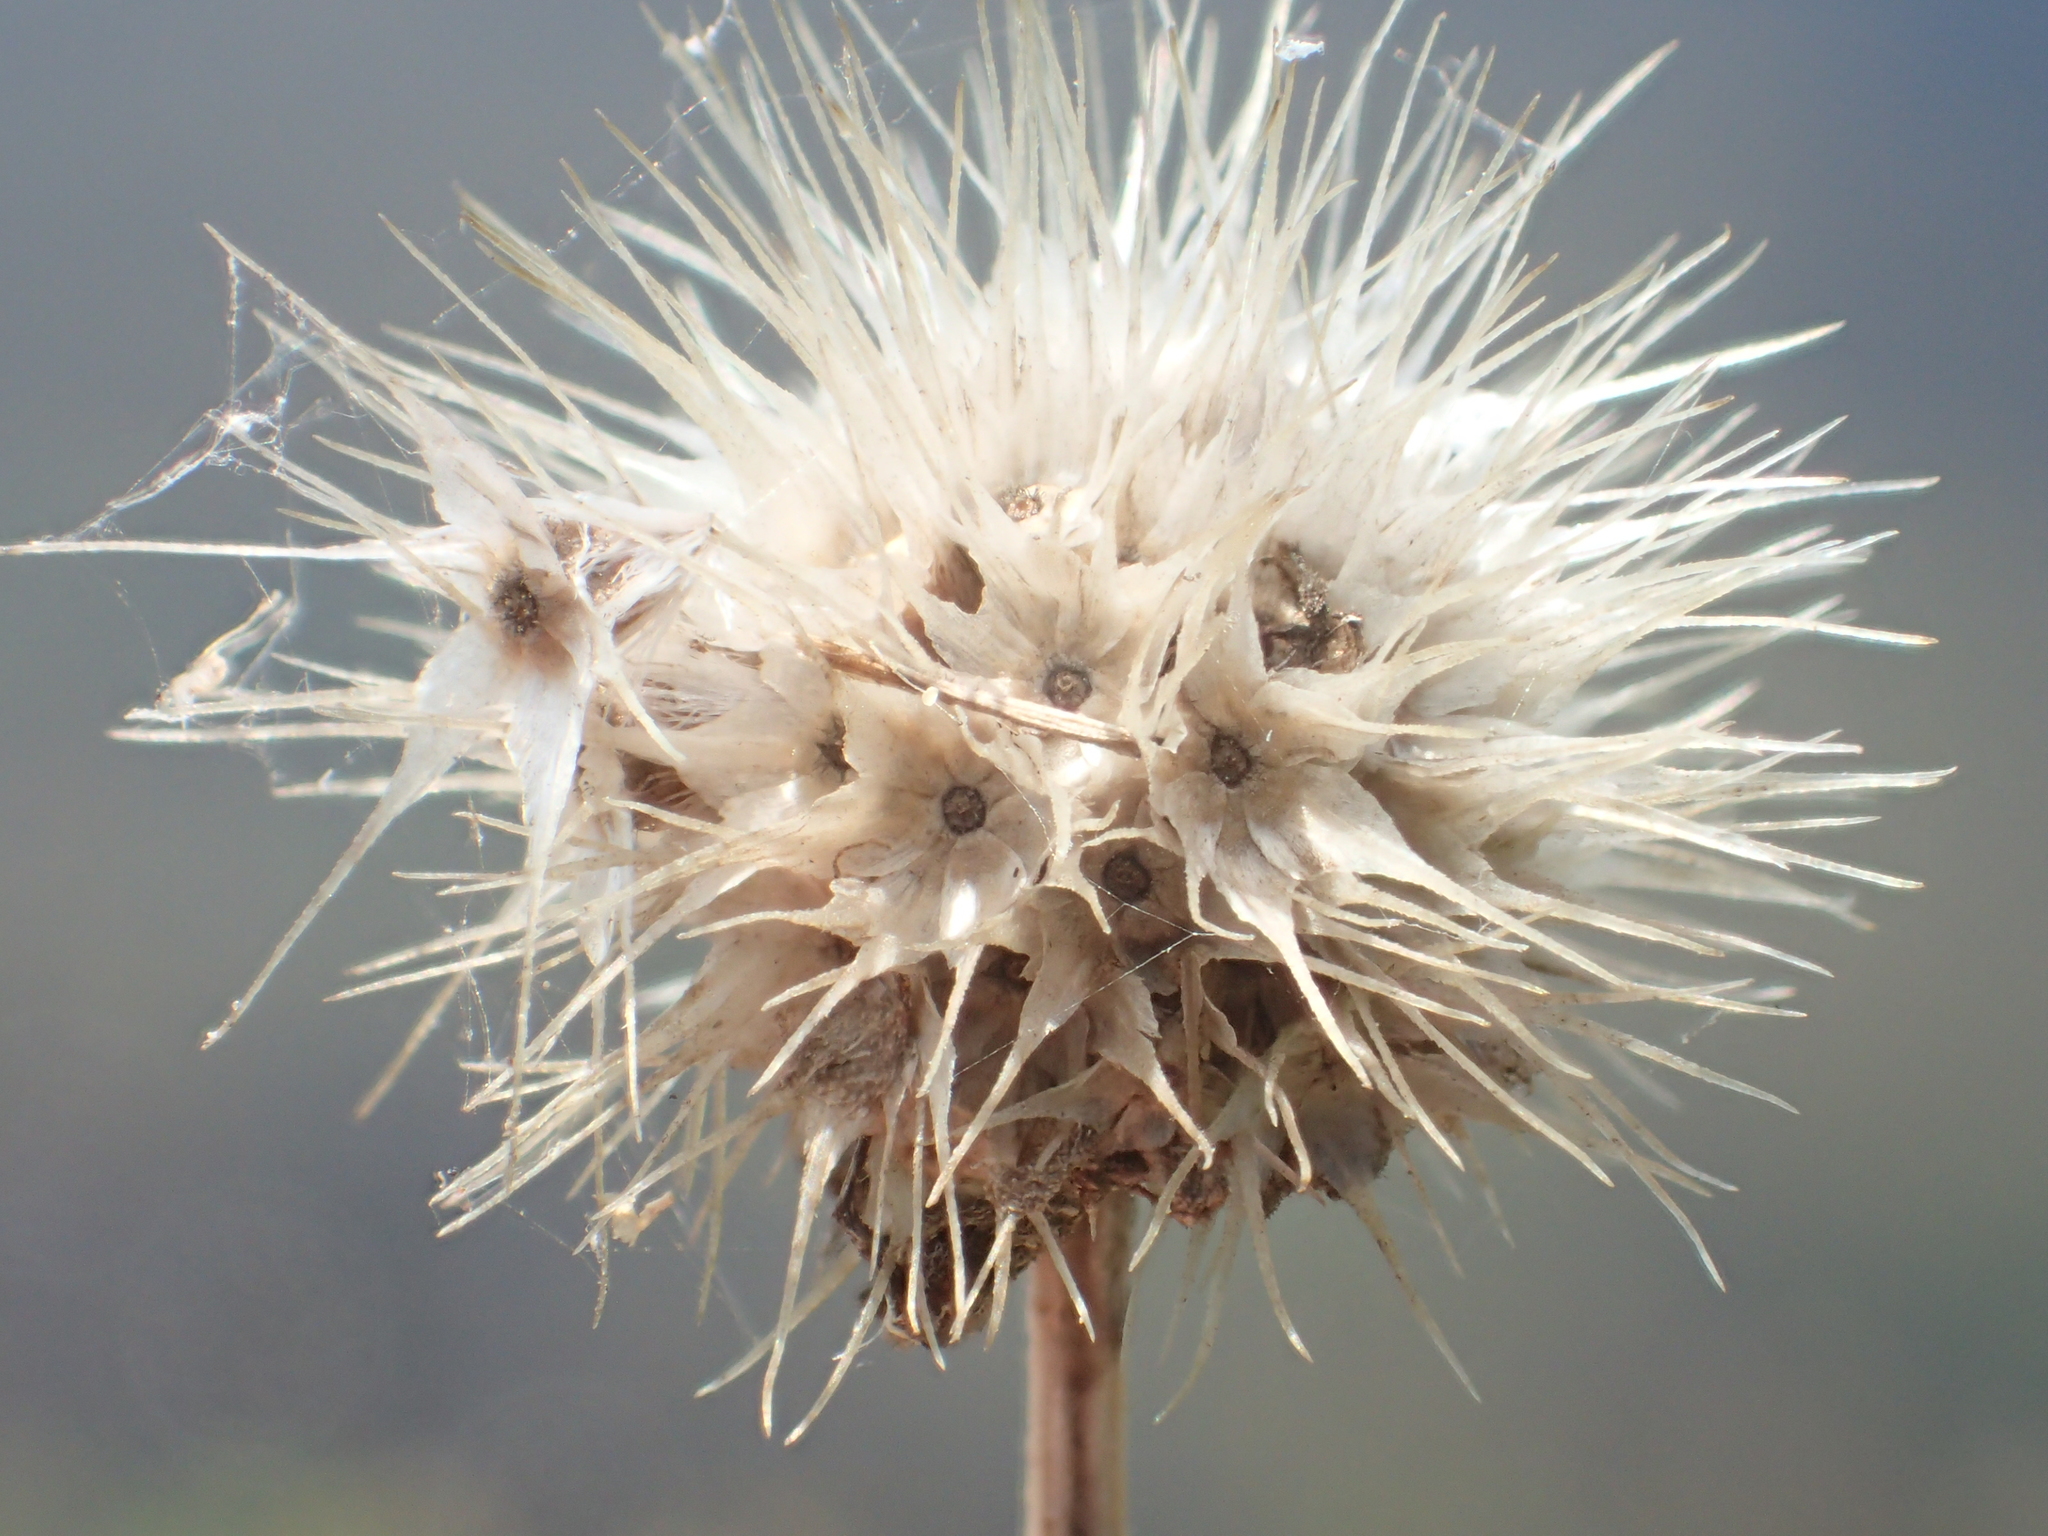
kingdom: Plantae
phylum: Tracheophyta
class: Magnoliopsida
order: Asterales
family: Asteraceae
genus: Gaillardia
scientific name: Gaillardia pulchella
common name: Firewheel
